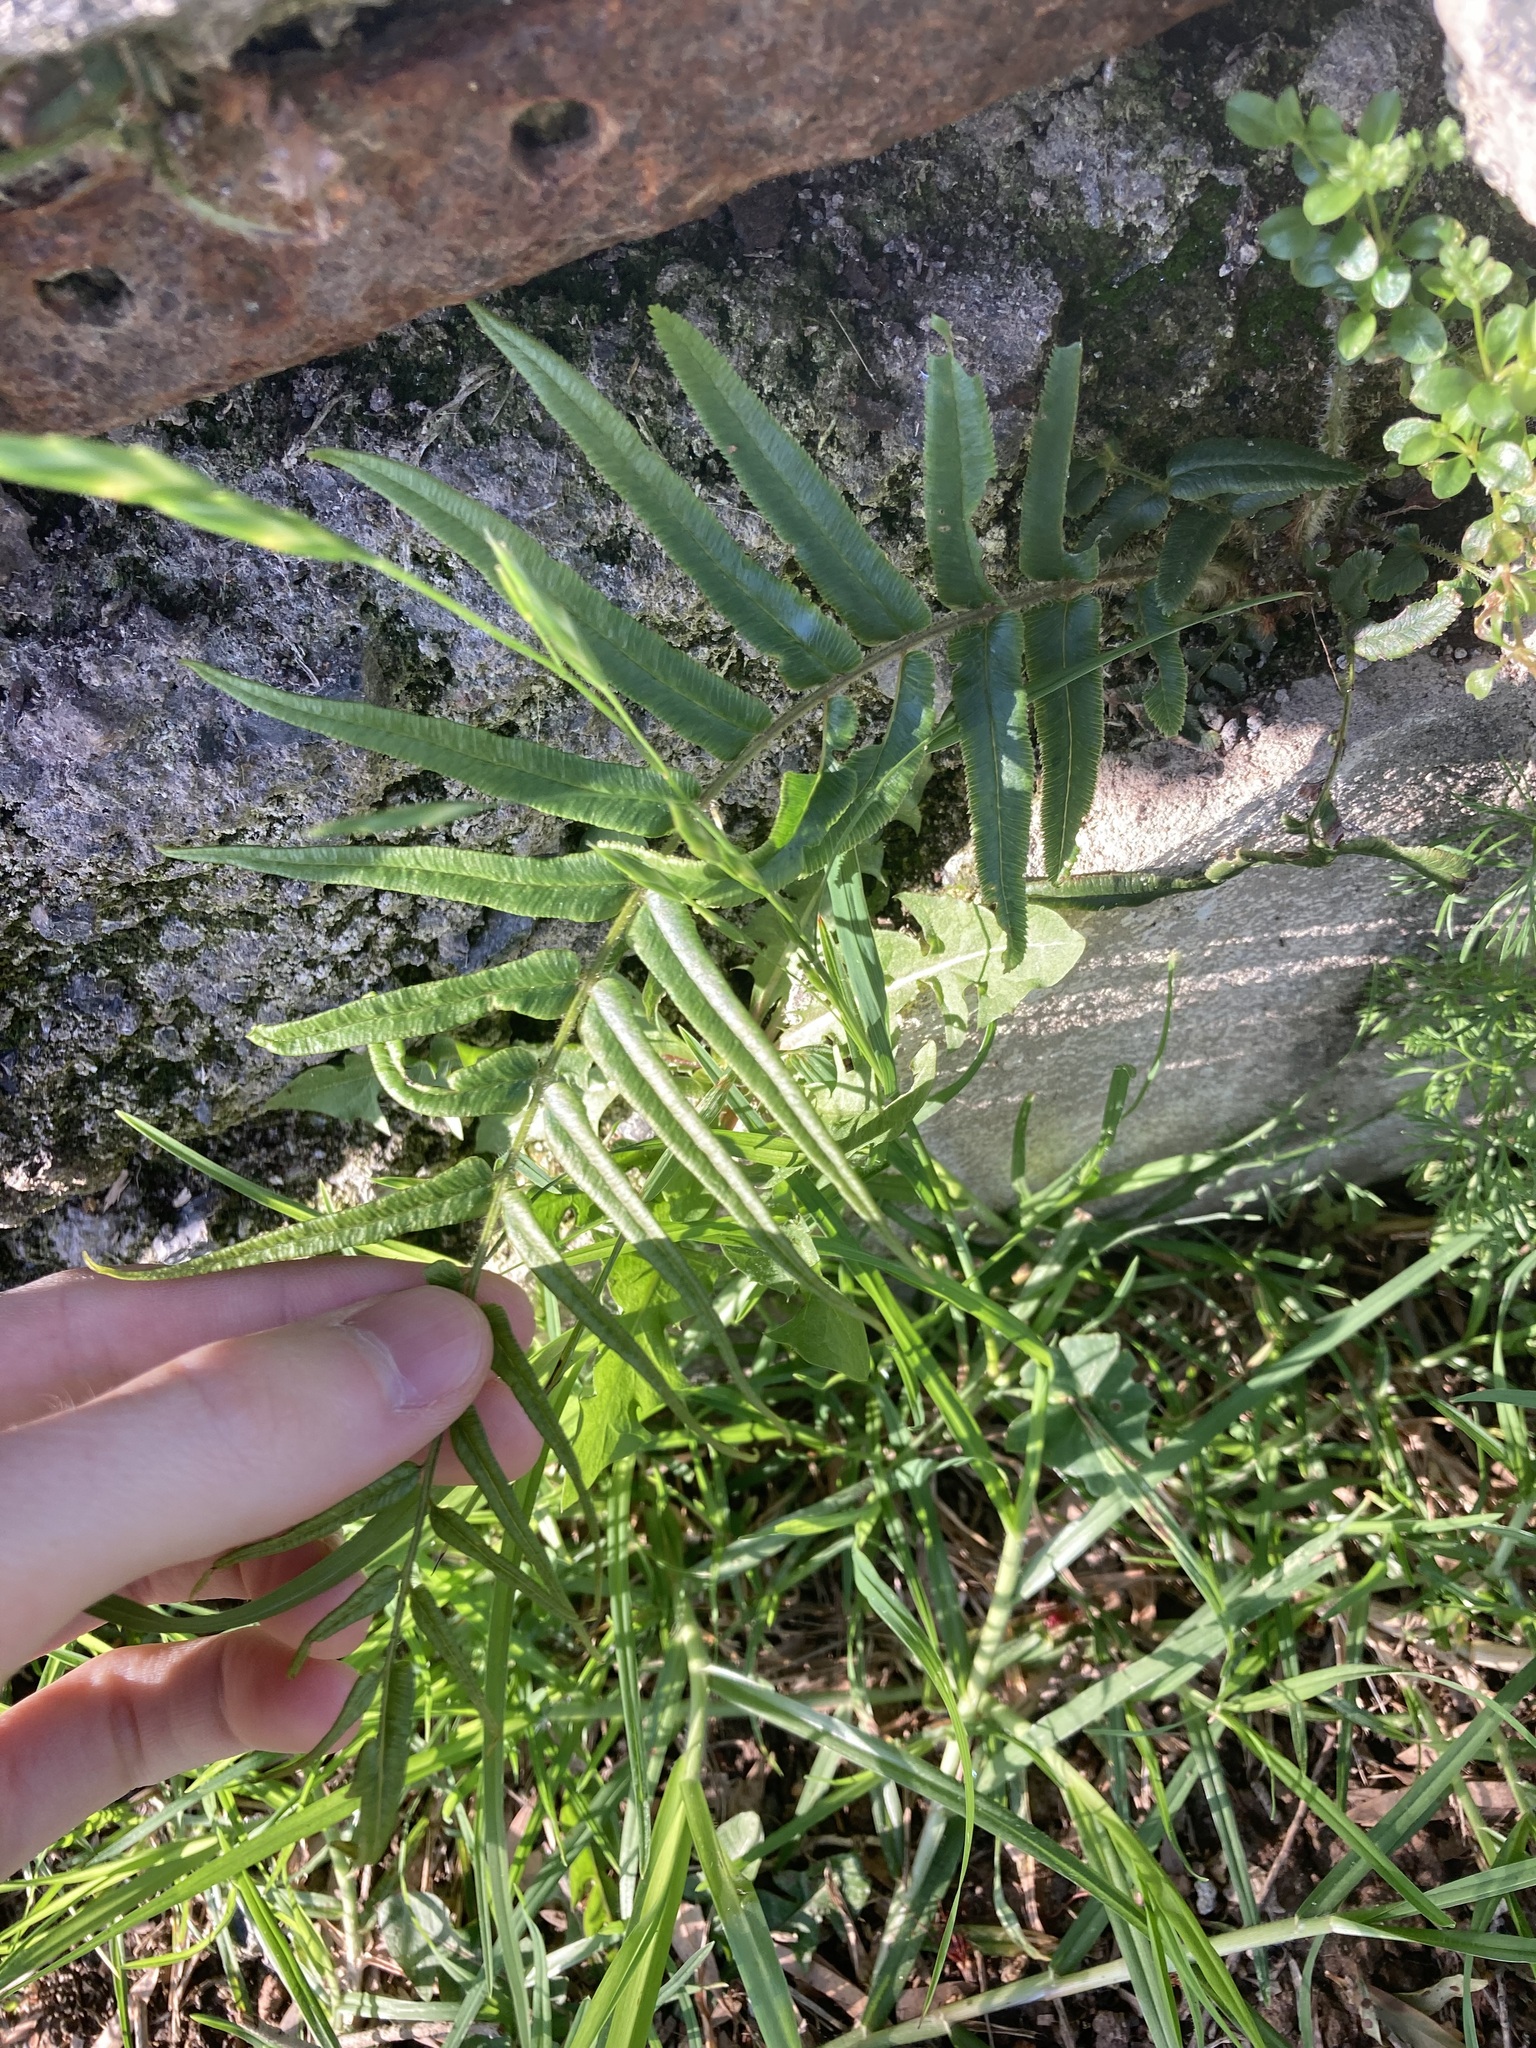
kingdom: Plantae
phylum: Tracheophyta
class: Polypodiopsida
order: Polypodiales
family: Pteridaceae
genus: Pteris
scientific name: Pteris vittata
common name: Ladder brake
